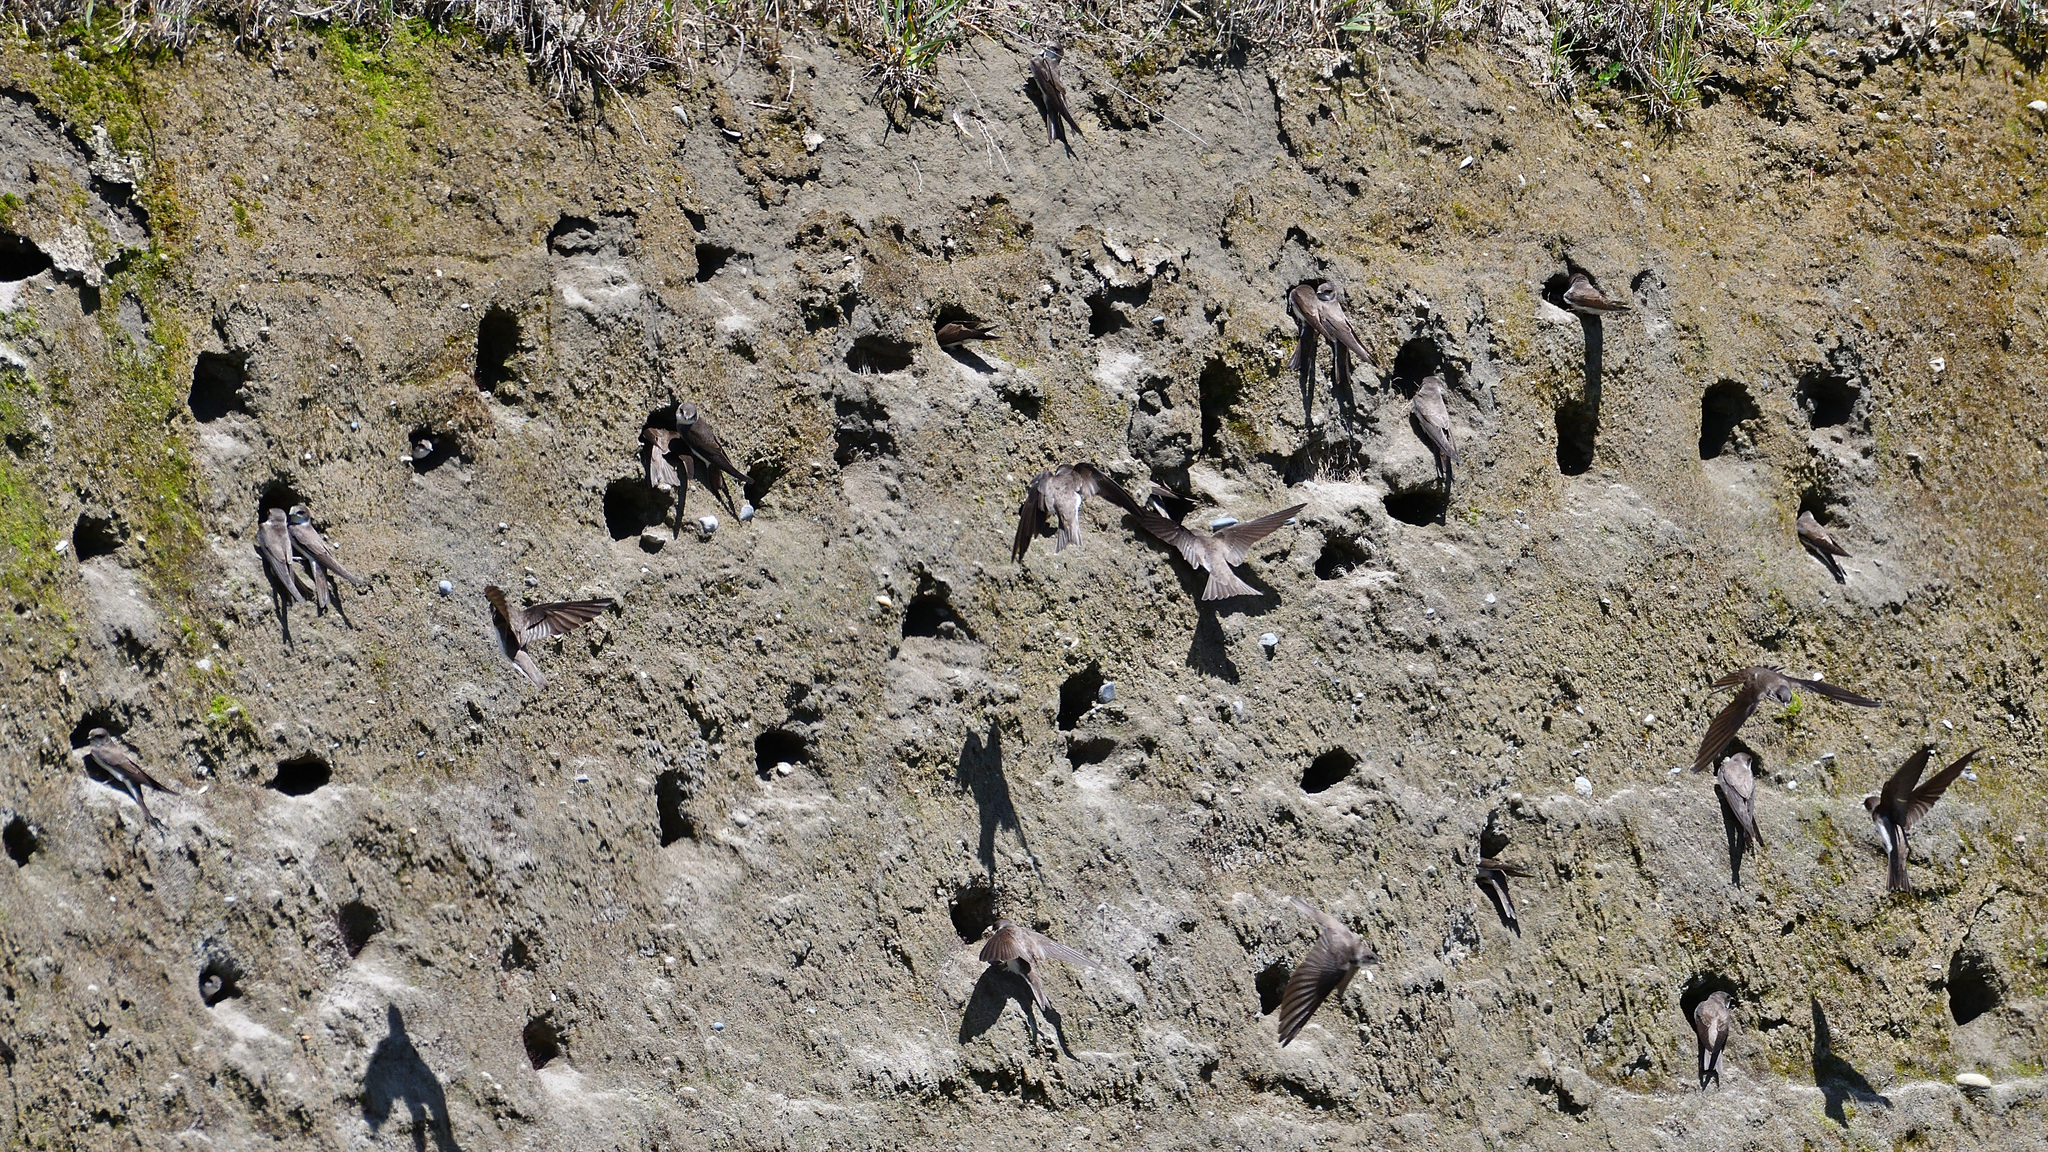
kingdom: Animalia
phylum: Chordata
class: Aves
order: Passeriformes
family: Hirundinidae
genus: Riparia
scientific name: Riparia riparia
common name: Sand martin
